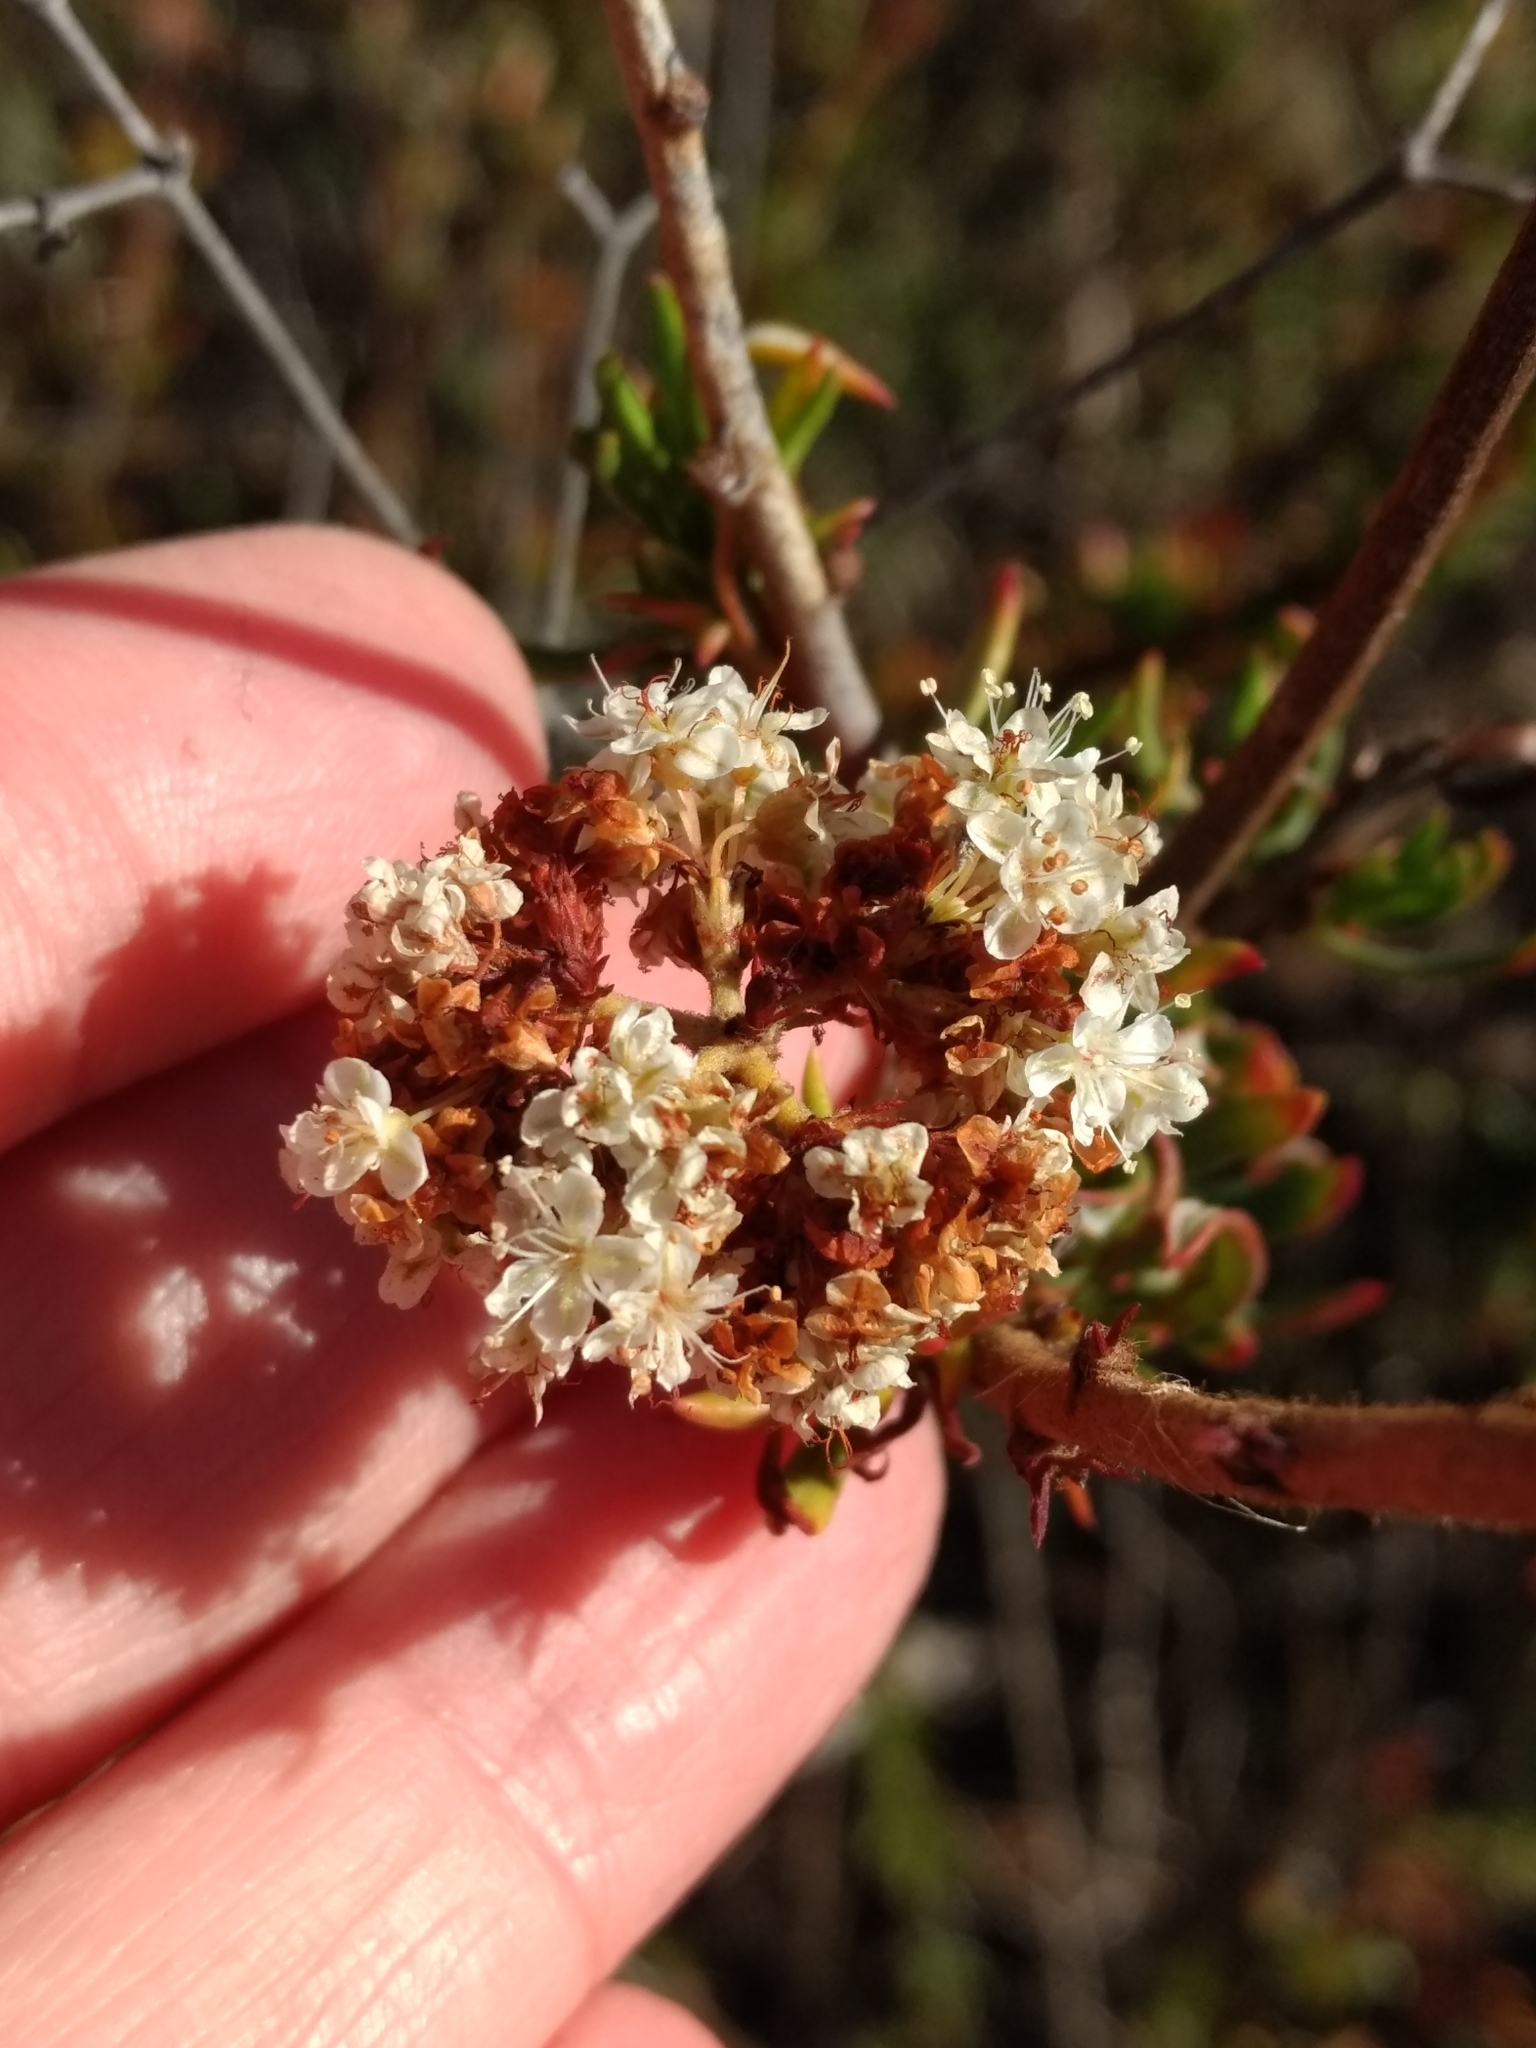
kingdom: Plantae
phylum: Tracheophyta
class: Magnoliopsida
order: Caryophyllales
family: Polygonaceae
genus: Eriogonum
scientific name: Eriogonum fasciculatum
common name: California wild buckwheat
